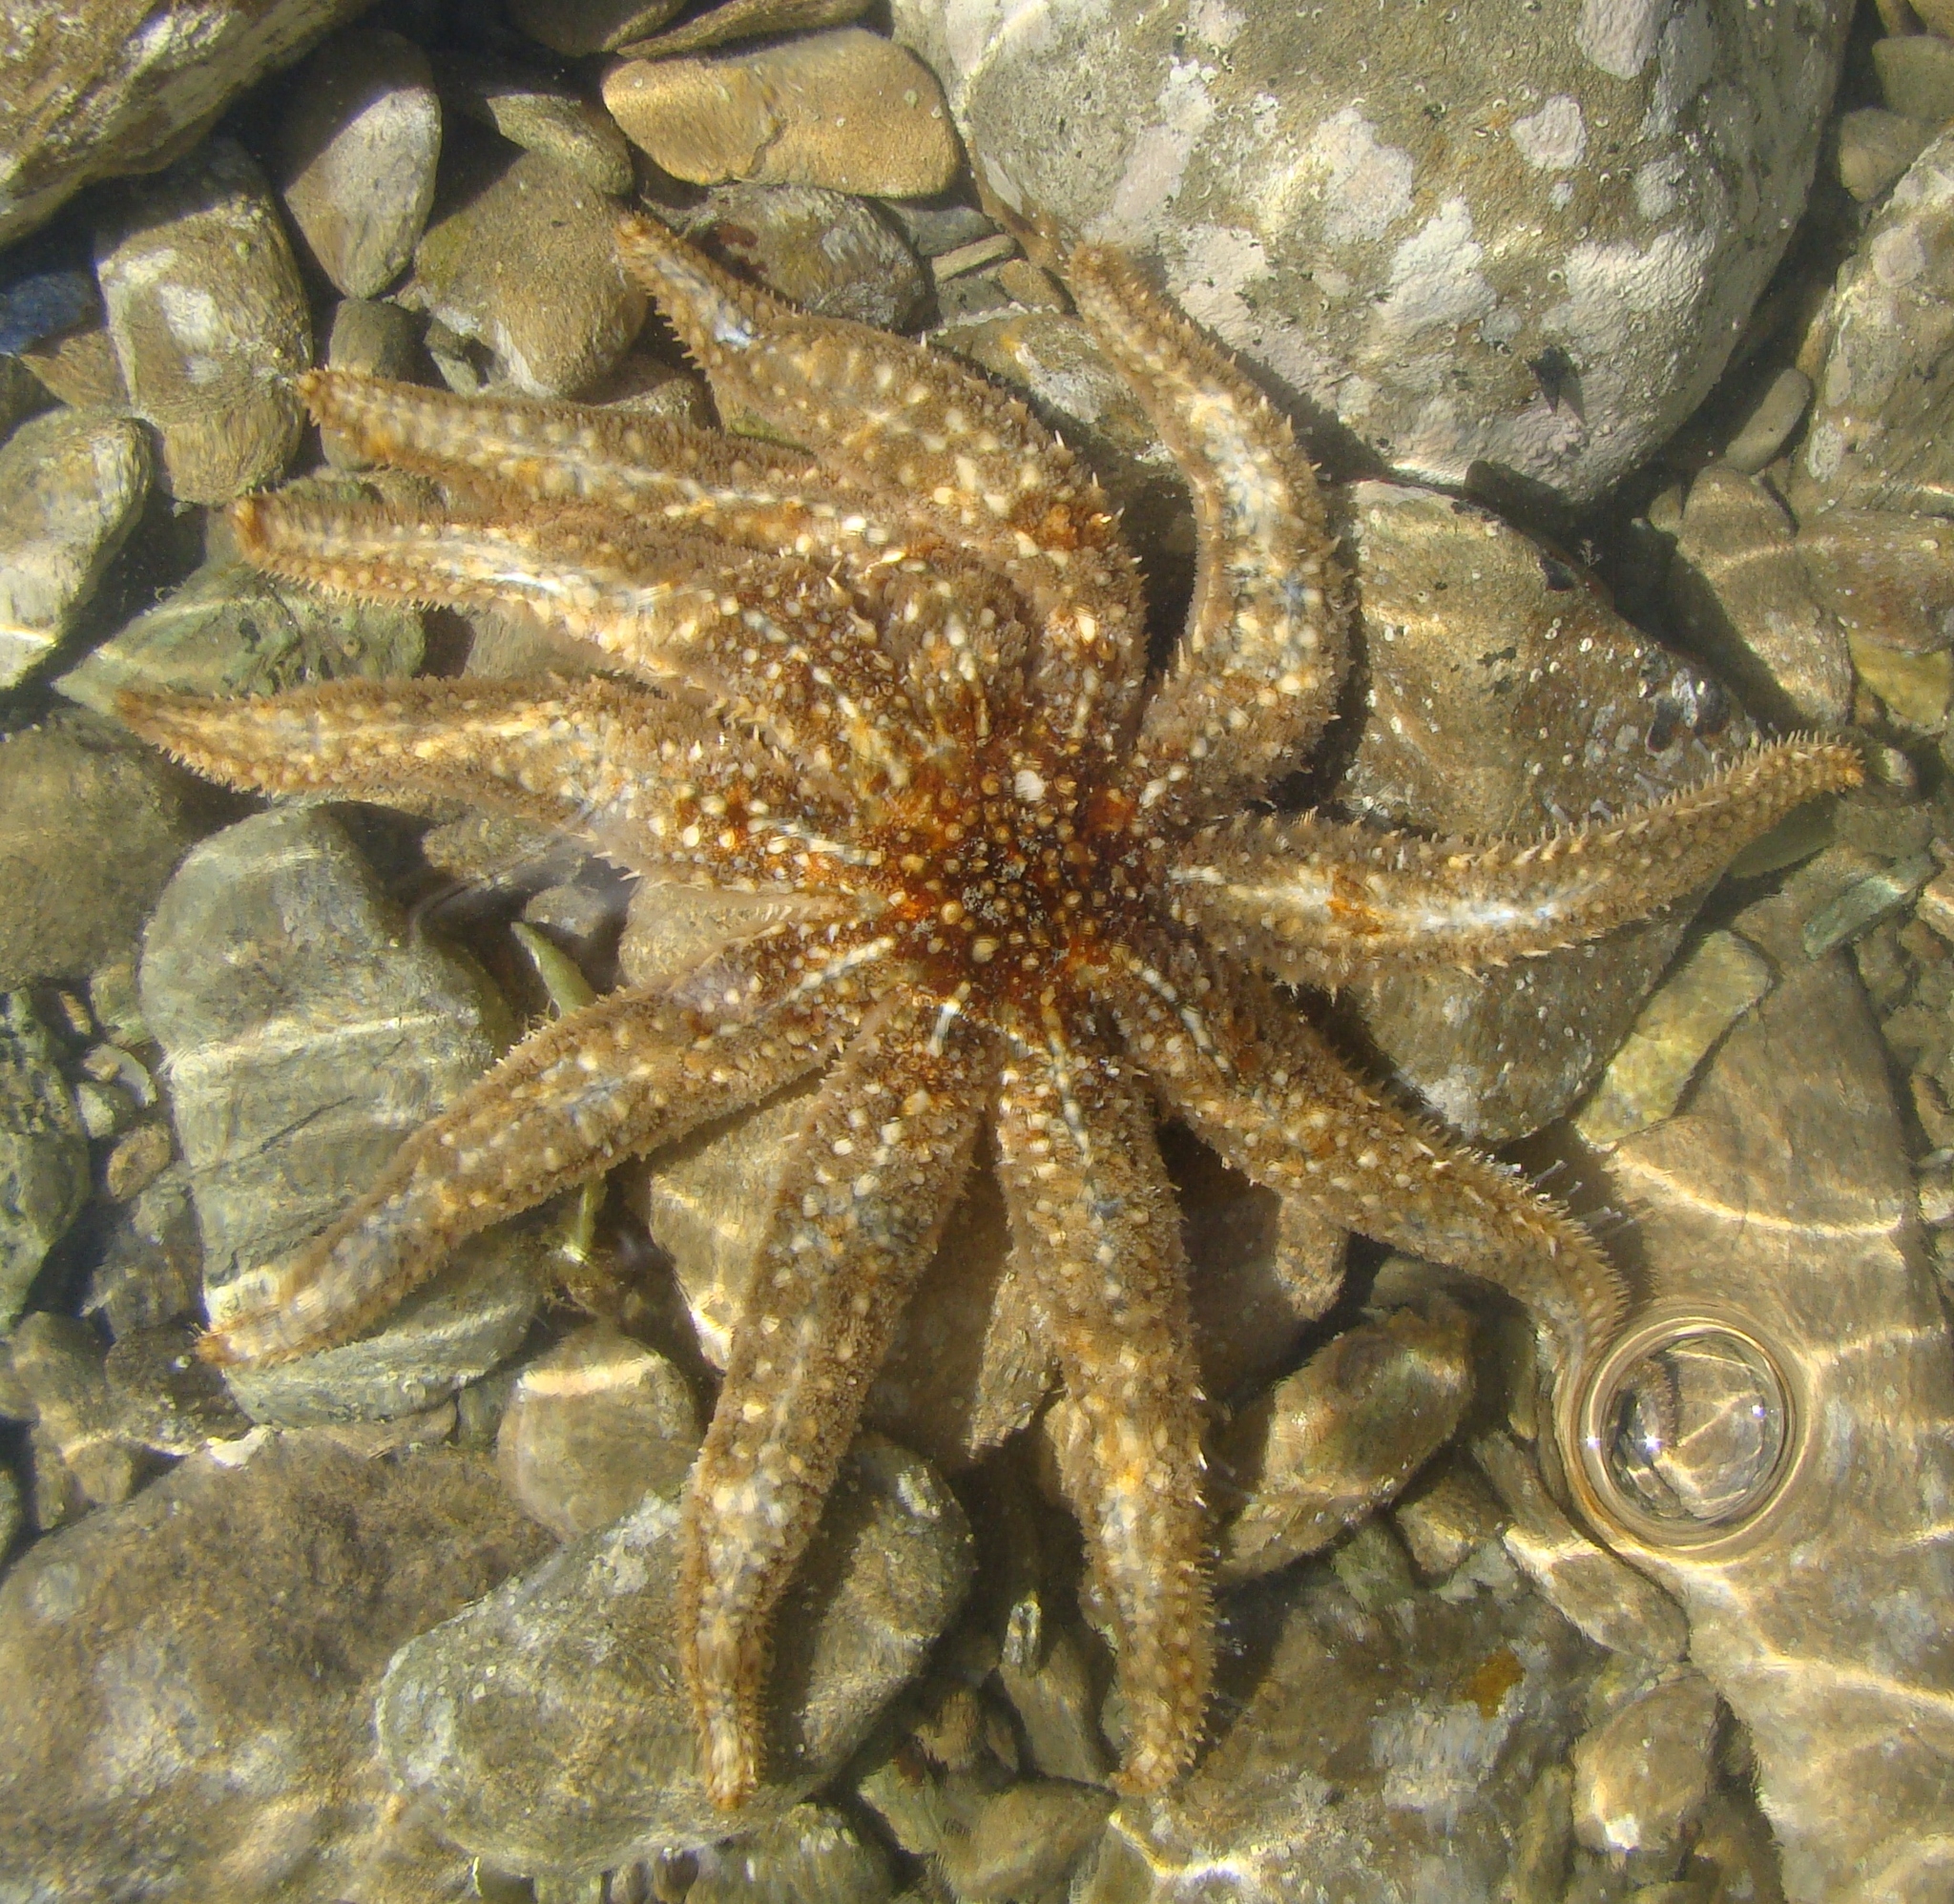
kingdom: Animalia
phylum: Echinodermata
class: Asteroidea
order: Forcipulatida
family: Asteriidae
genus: Coscinasterias
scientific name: Coscinasterias muricata
